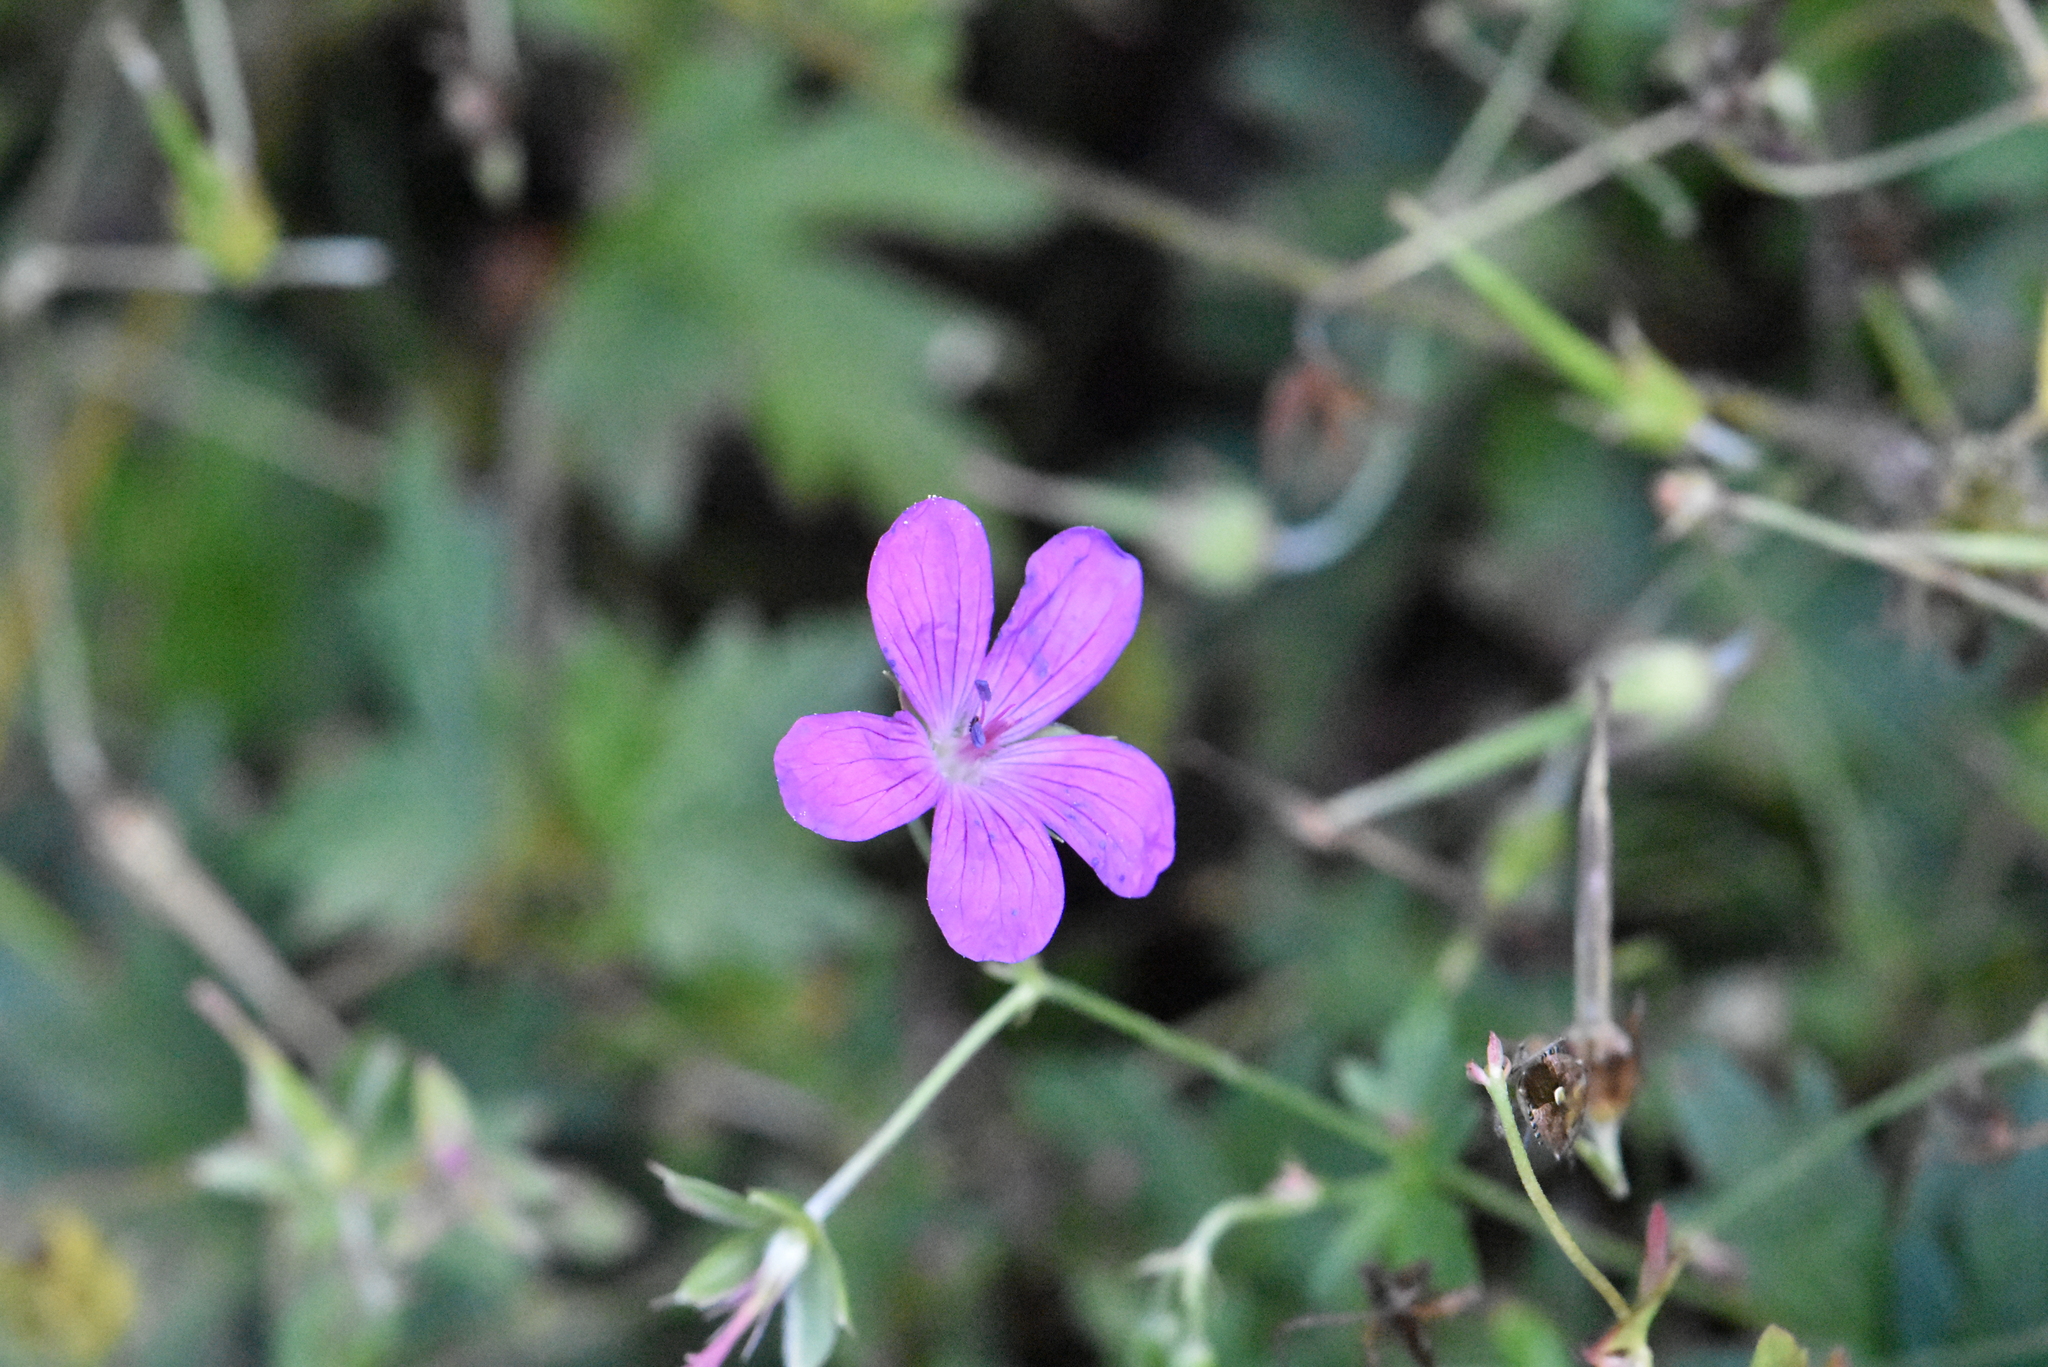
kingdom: Plantae
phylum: Tracheophyta
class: Magnoliopsida
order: Geraniales
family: Geraniaceae
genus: Geranium
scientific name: Geranium palustre
